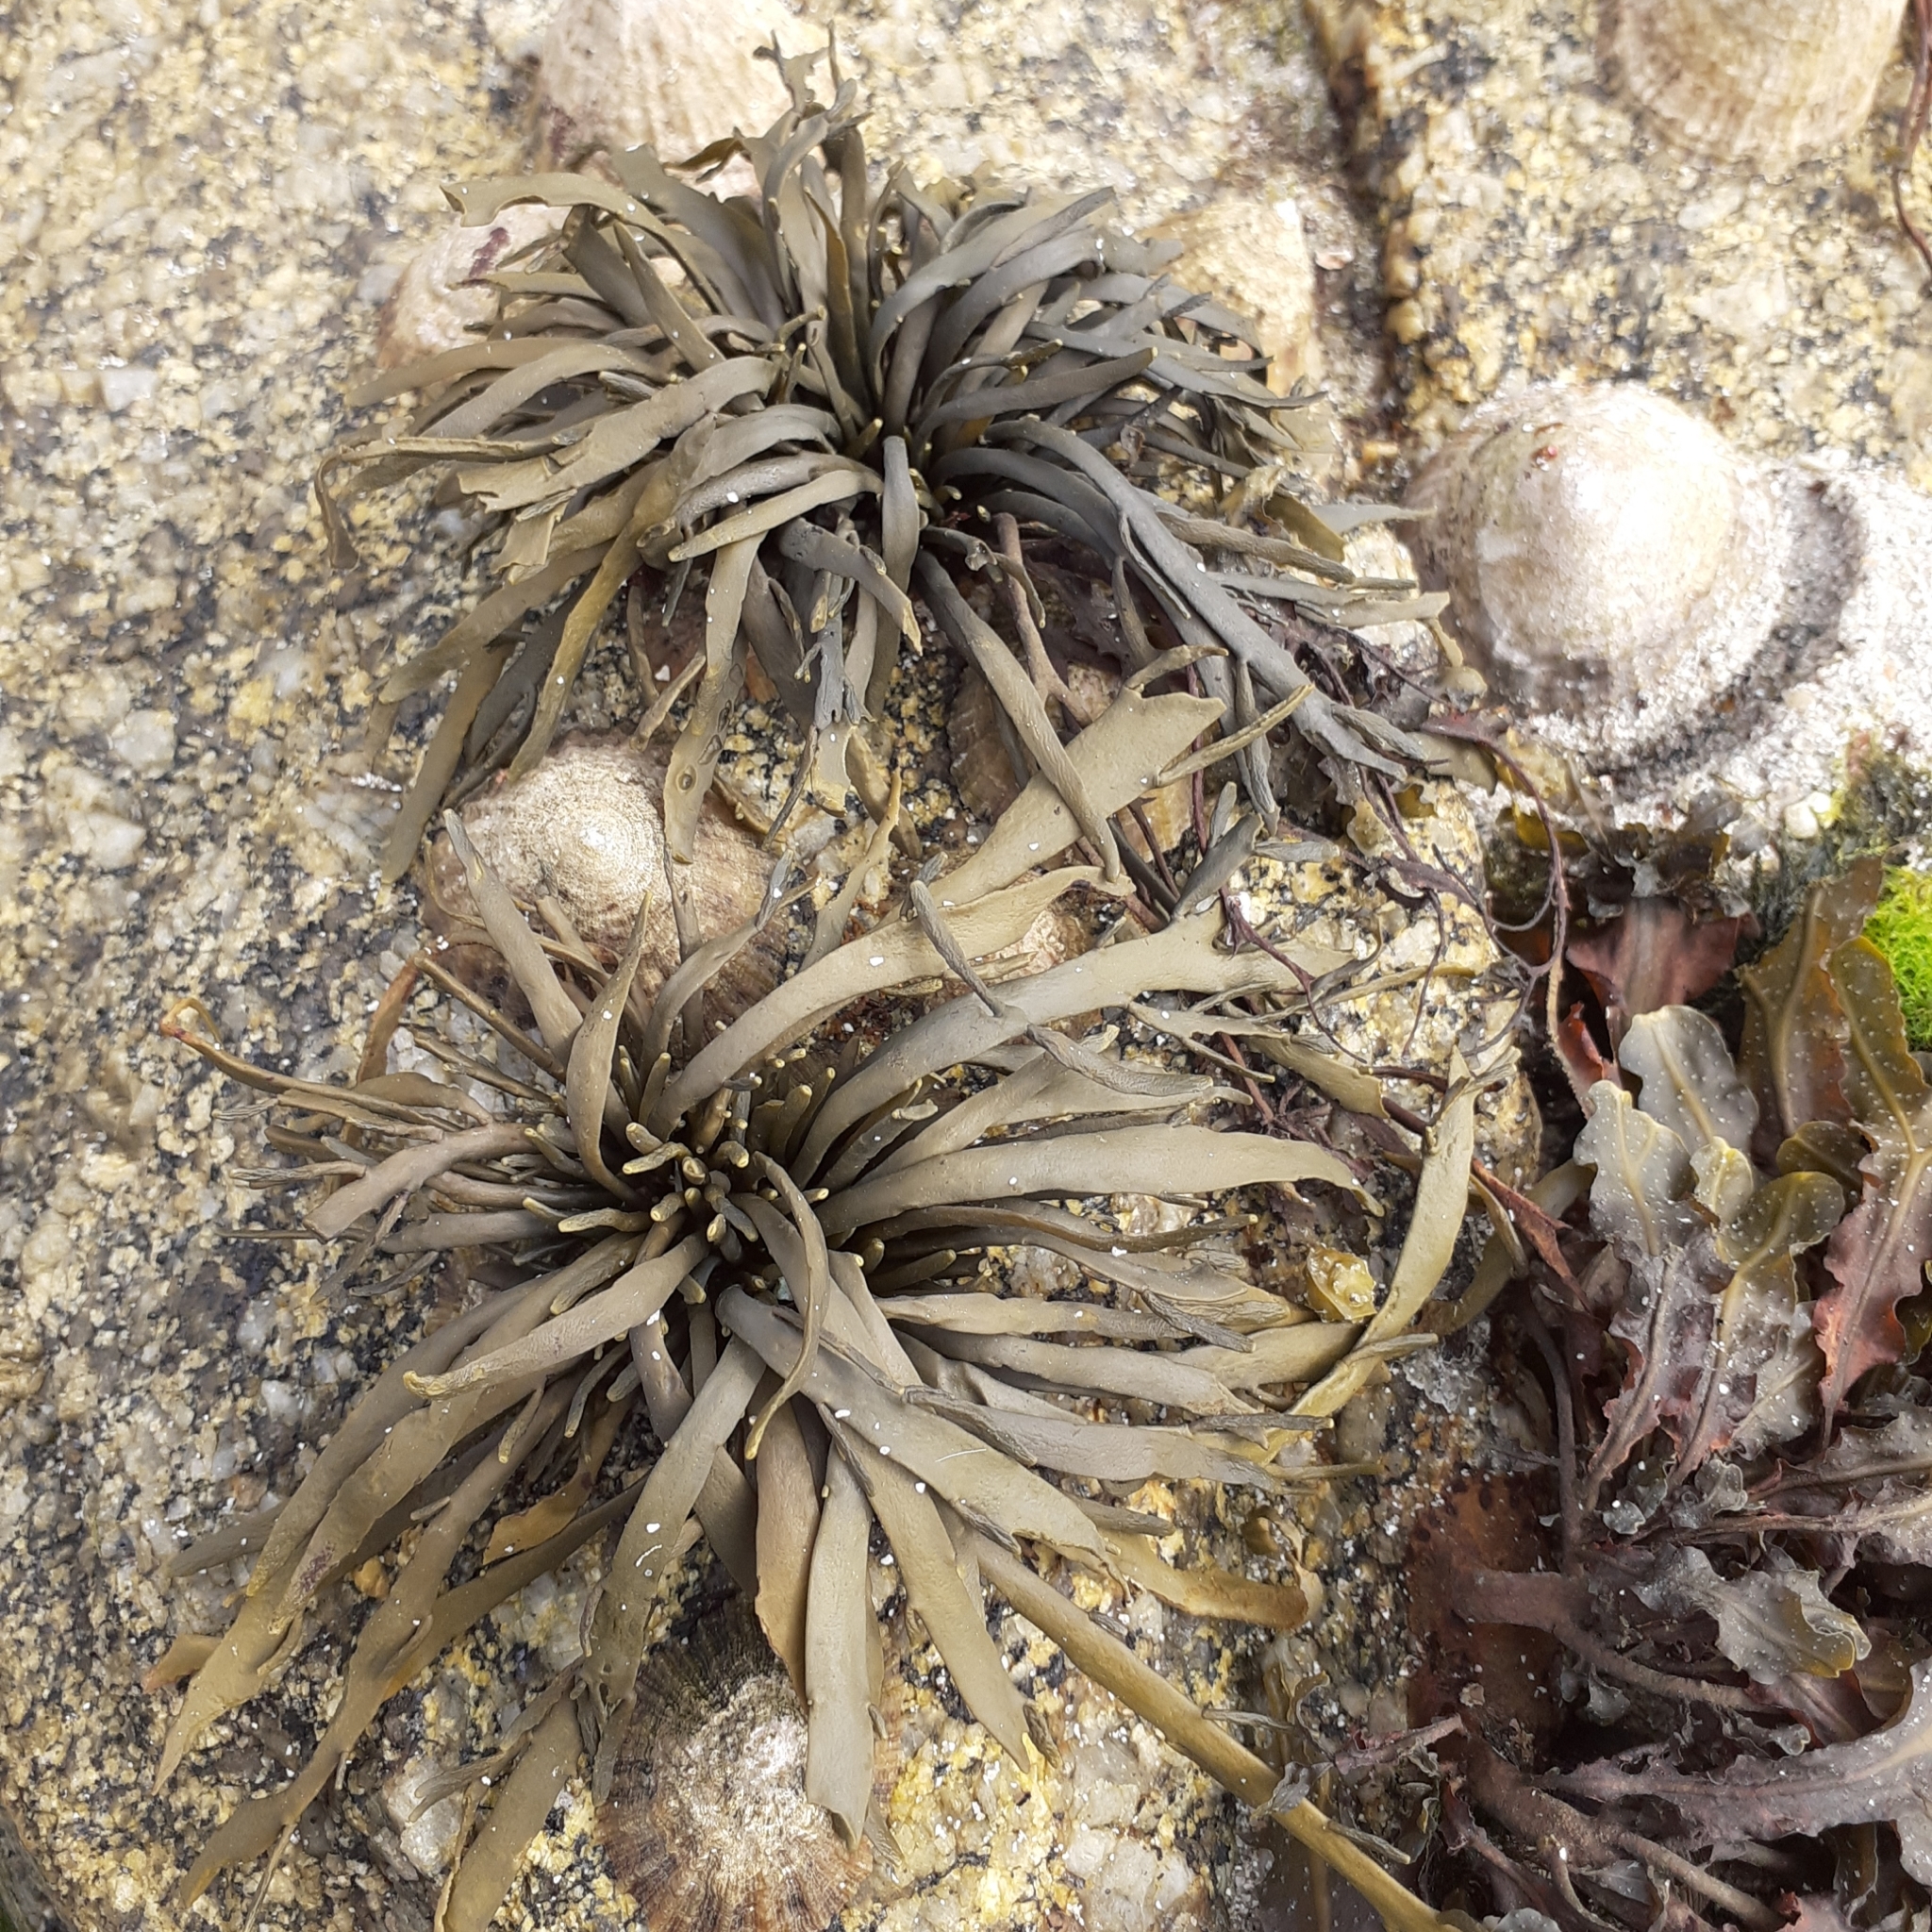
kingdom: Chromista
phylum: Ochrophyta
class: Phaeophyceae
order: Fucales
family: Fucaceae
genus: Ascophyllum
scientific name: Ascophyllum nodosum
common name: Knotted wrack
